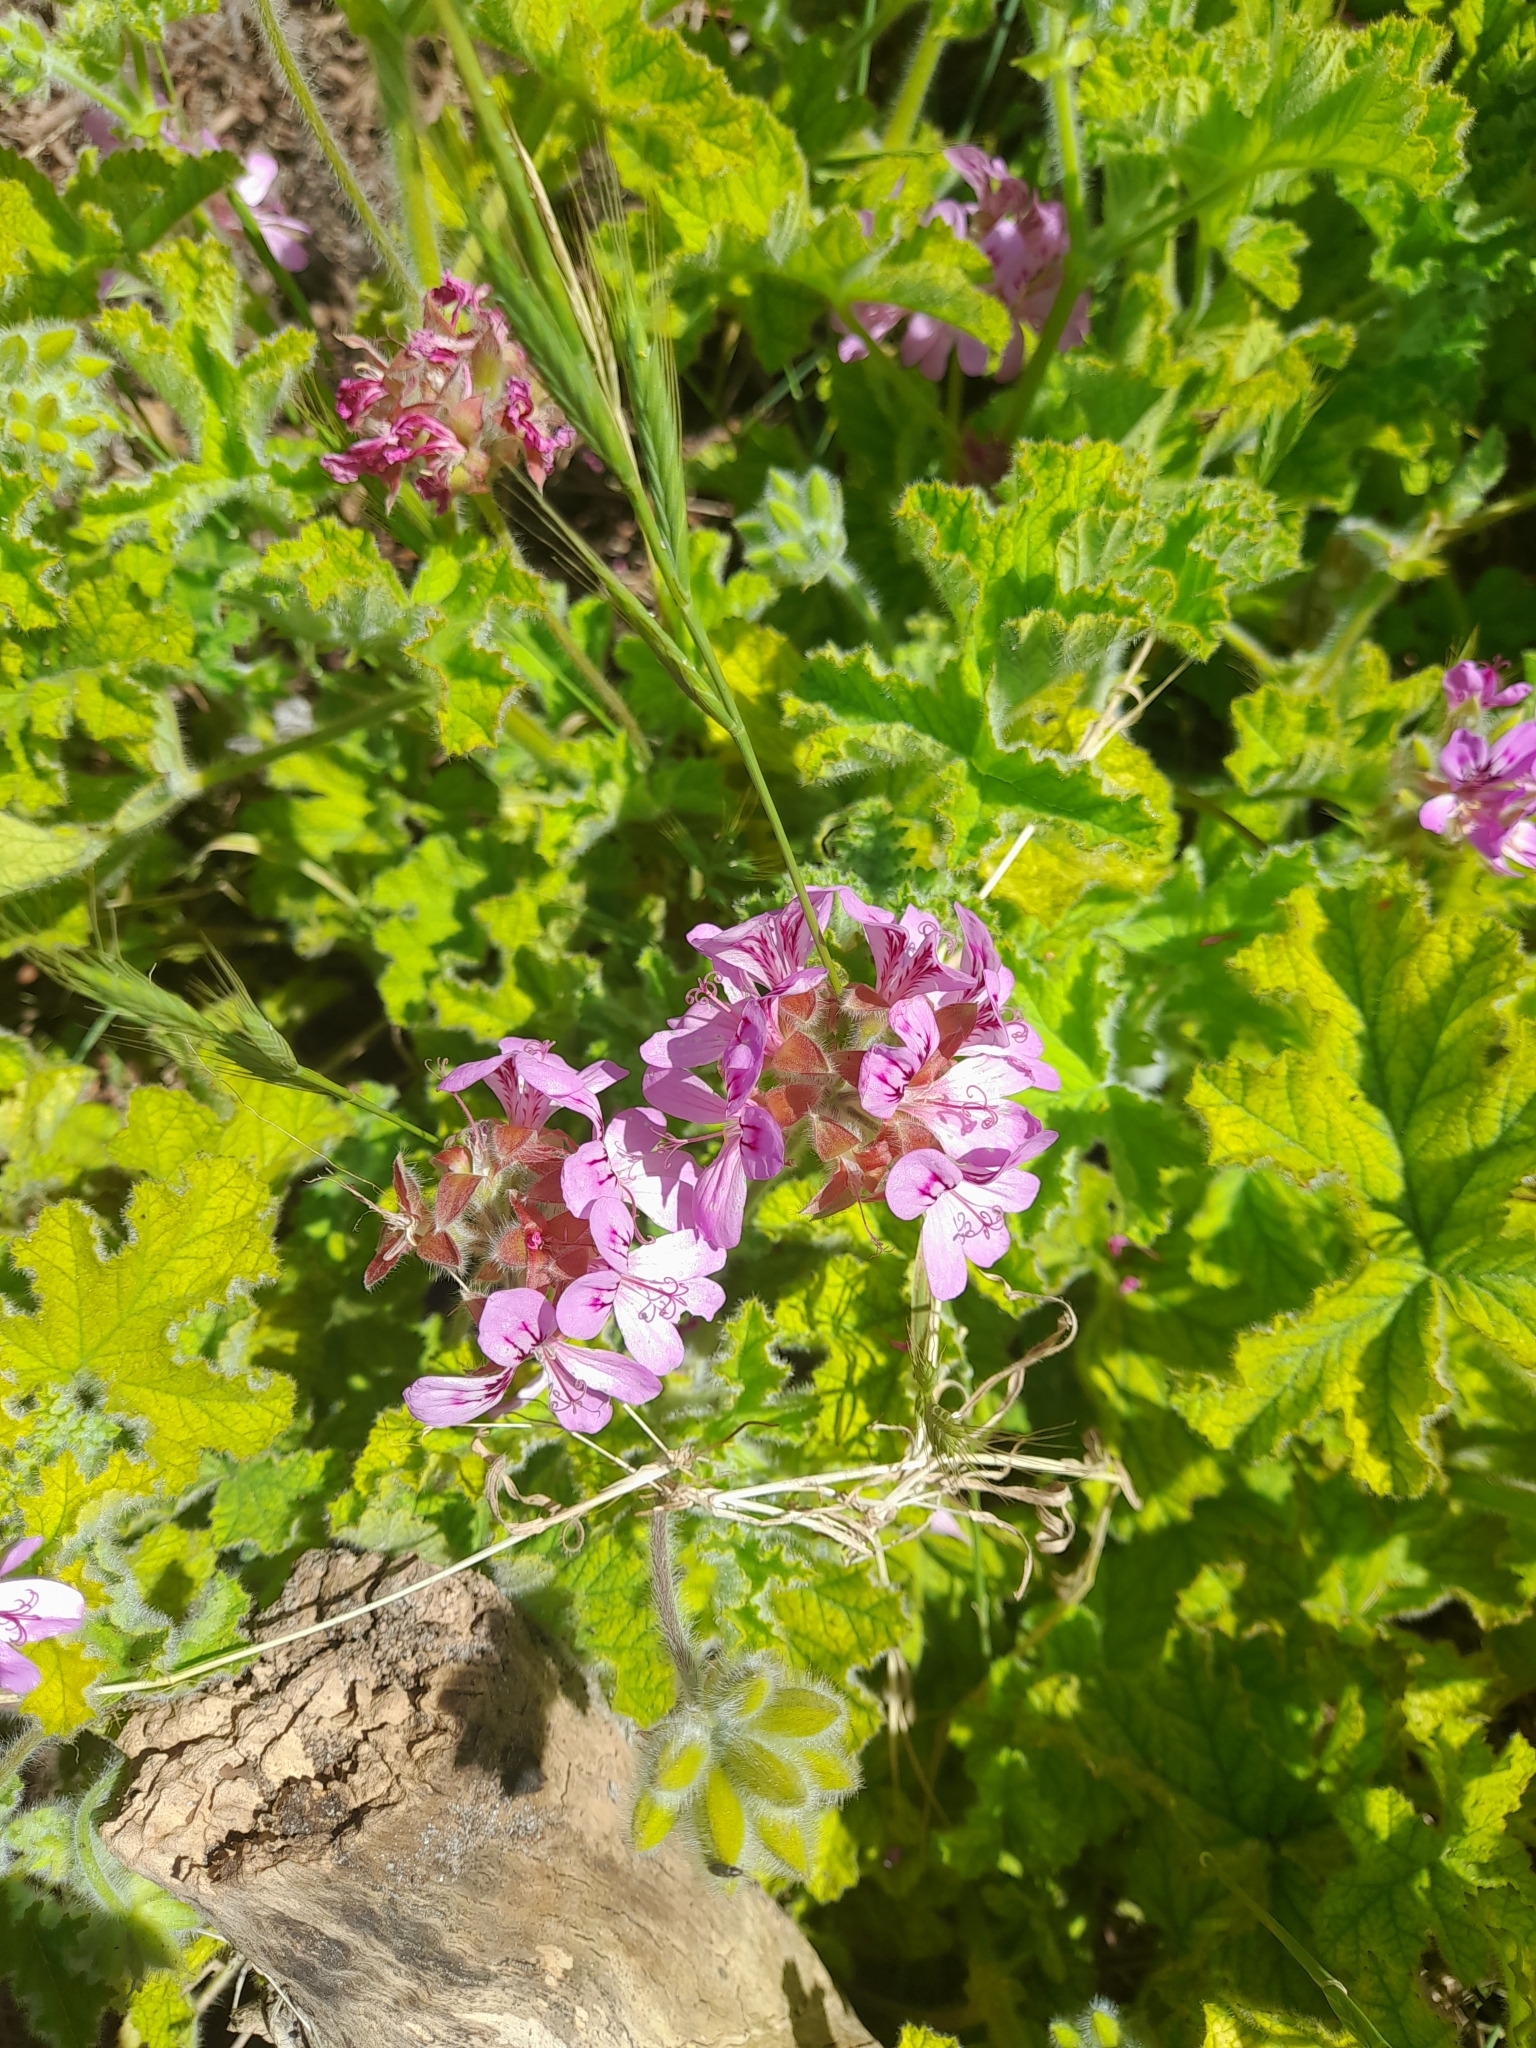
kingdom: Plantae
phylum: Tracheophyta
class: Magnoliopsida
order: Geraniales
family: Geraniaceae
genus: Pelargonium
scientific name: Pelargonium capitatum
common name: Rose scented geranium
